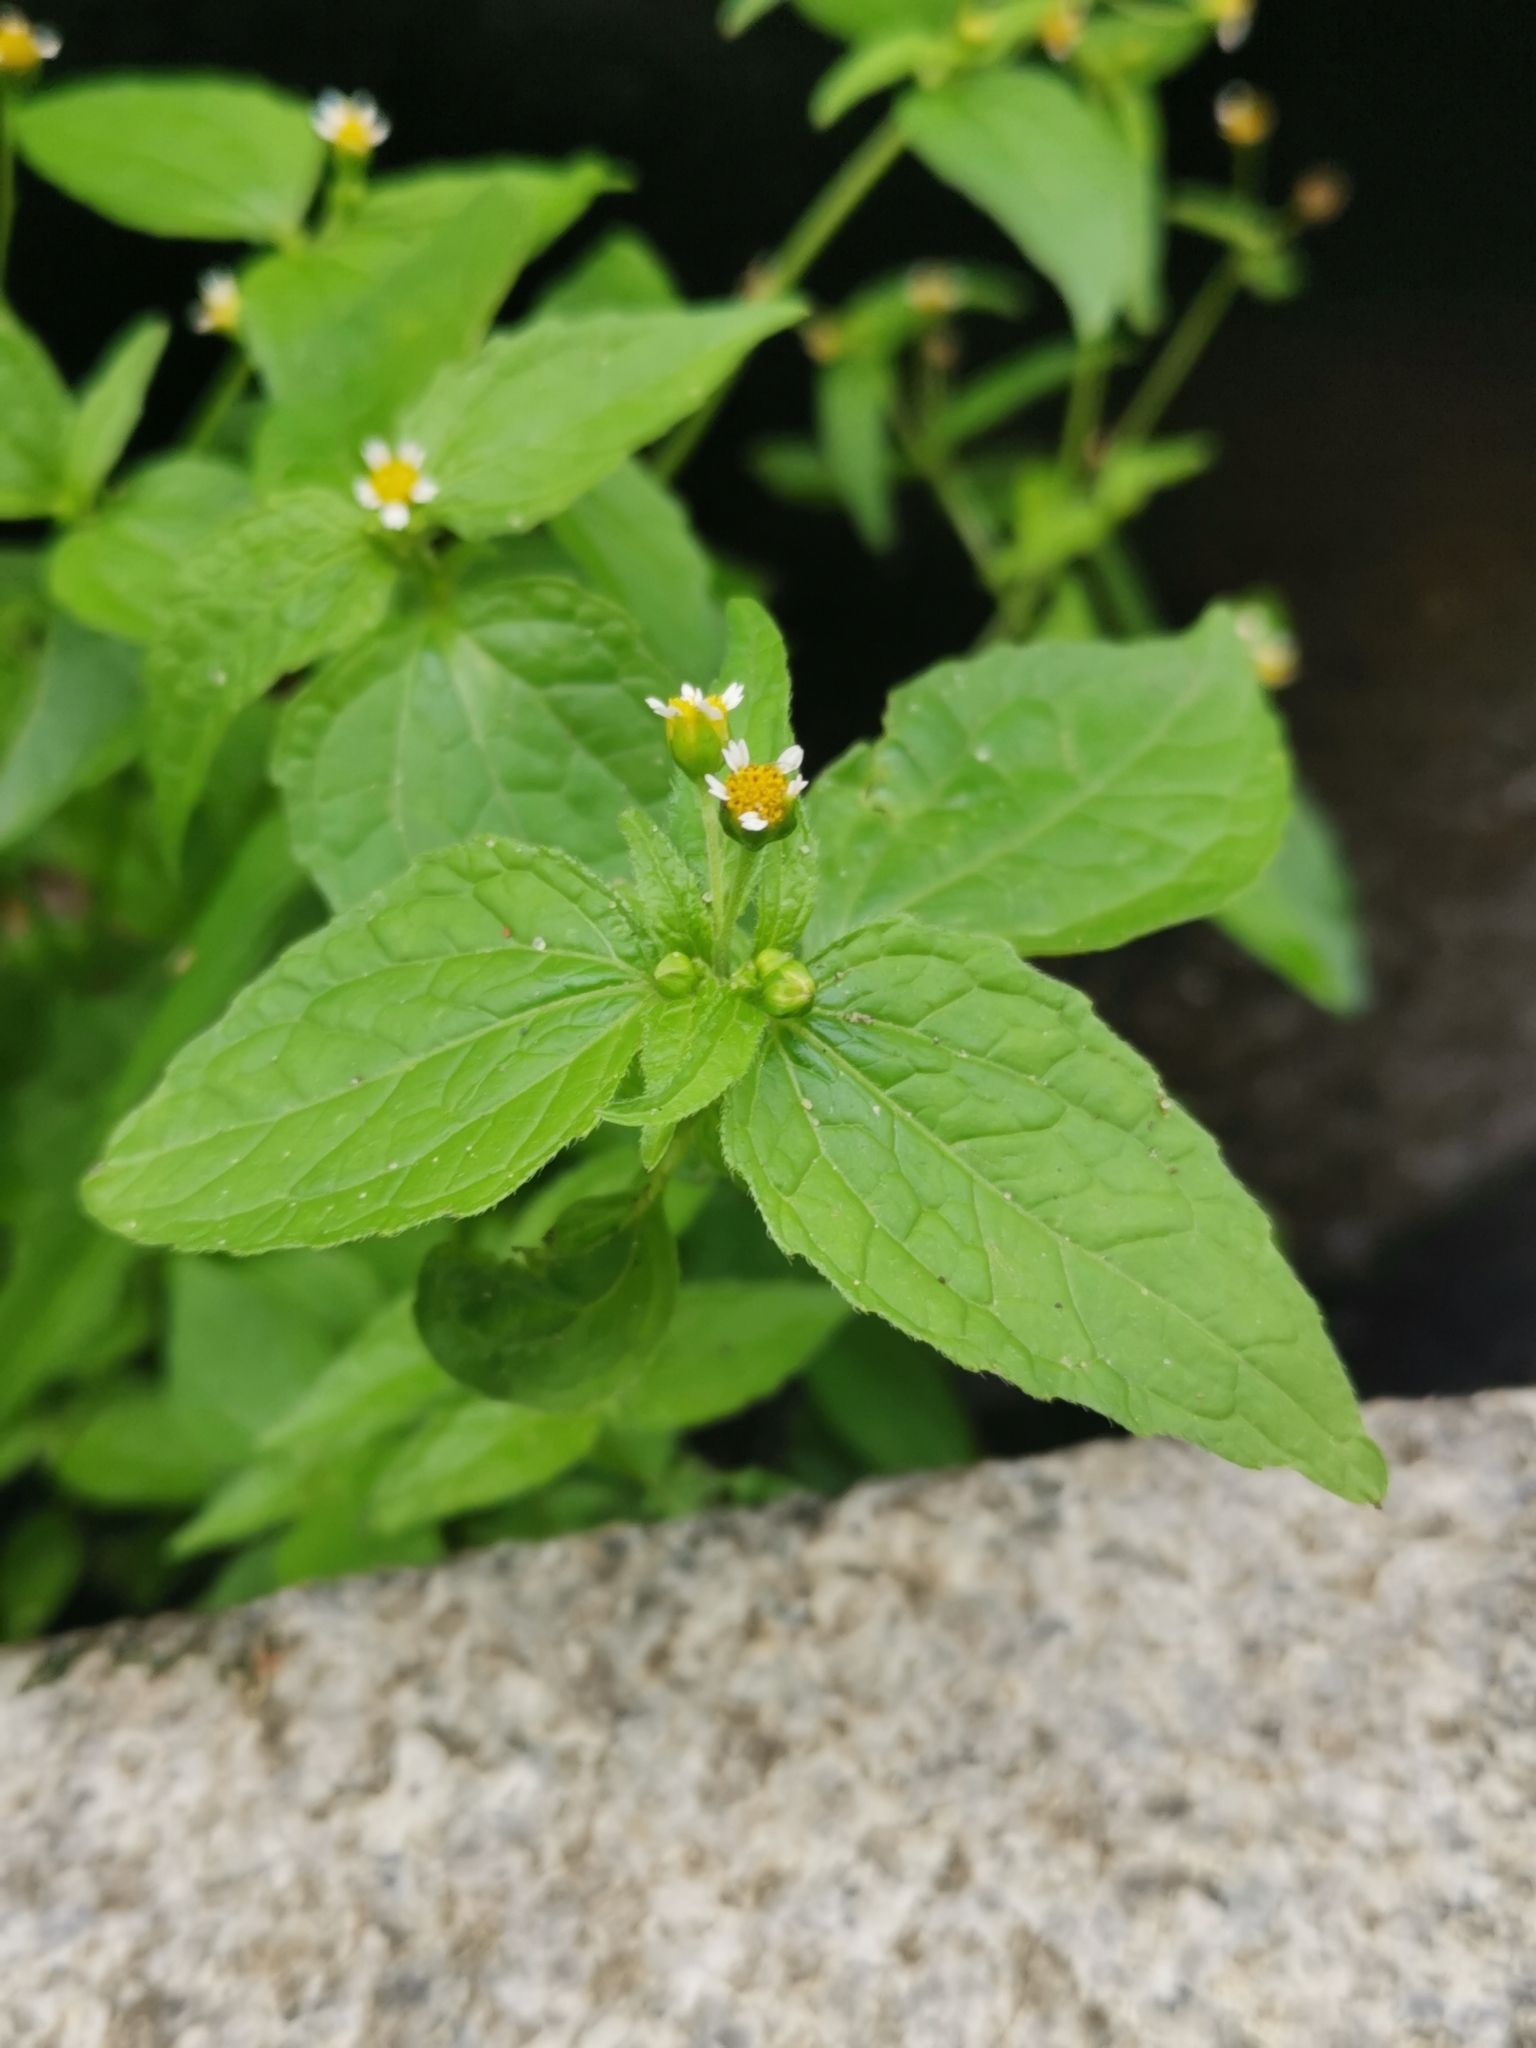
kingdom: Plantae
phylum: Tracheophyta
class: Magnoliopsida
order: Asterales
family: Asteraceae
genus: Galinsoga
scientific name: Galinsoga parviflora
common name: Gallant soldier
